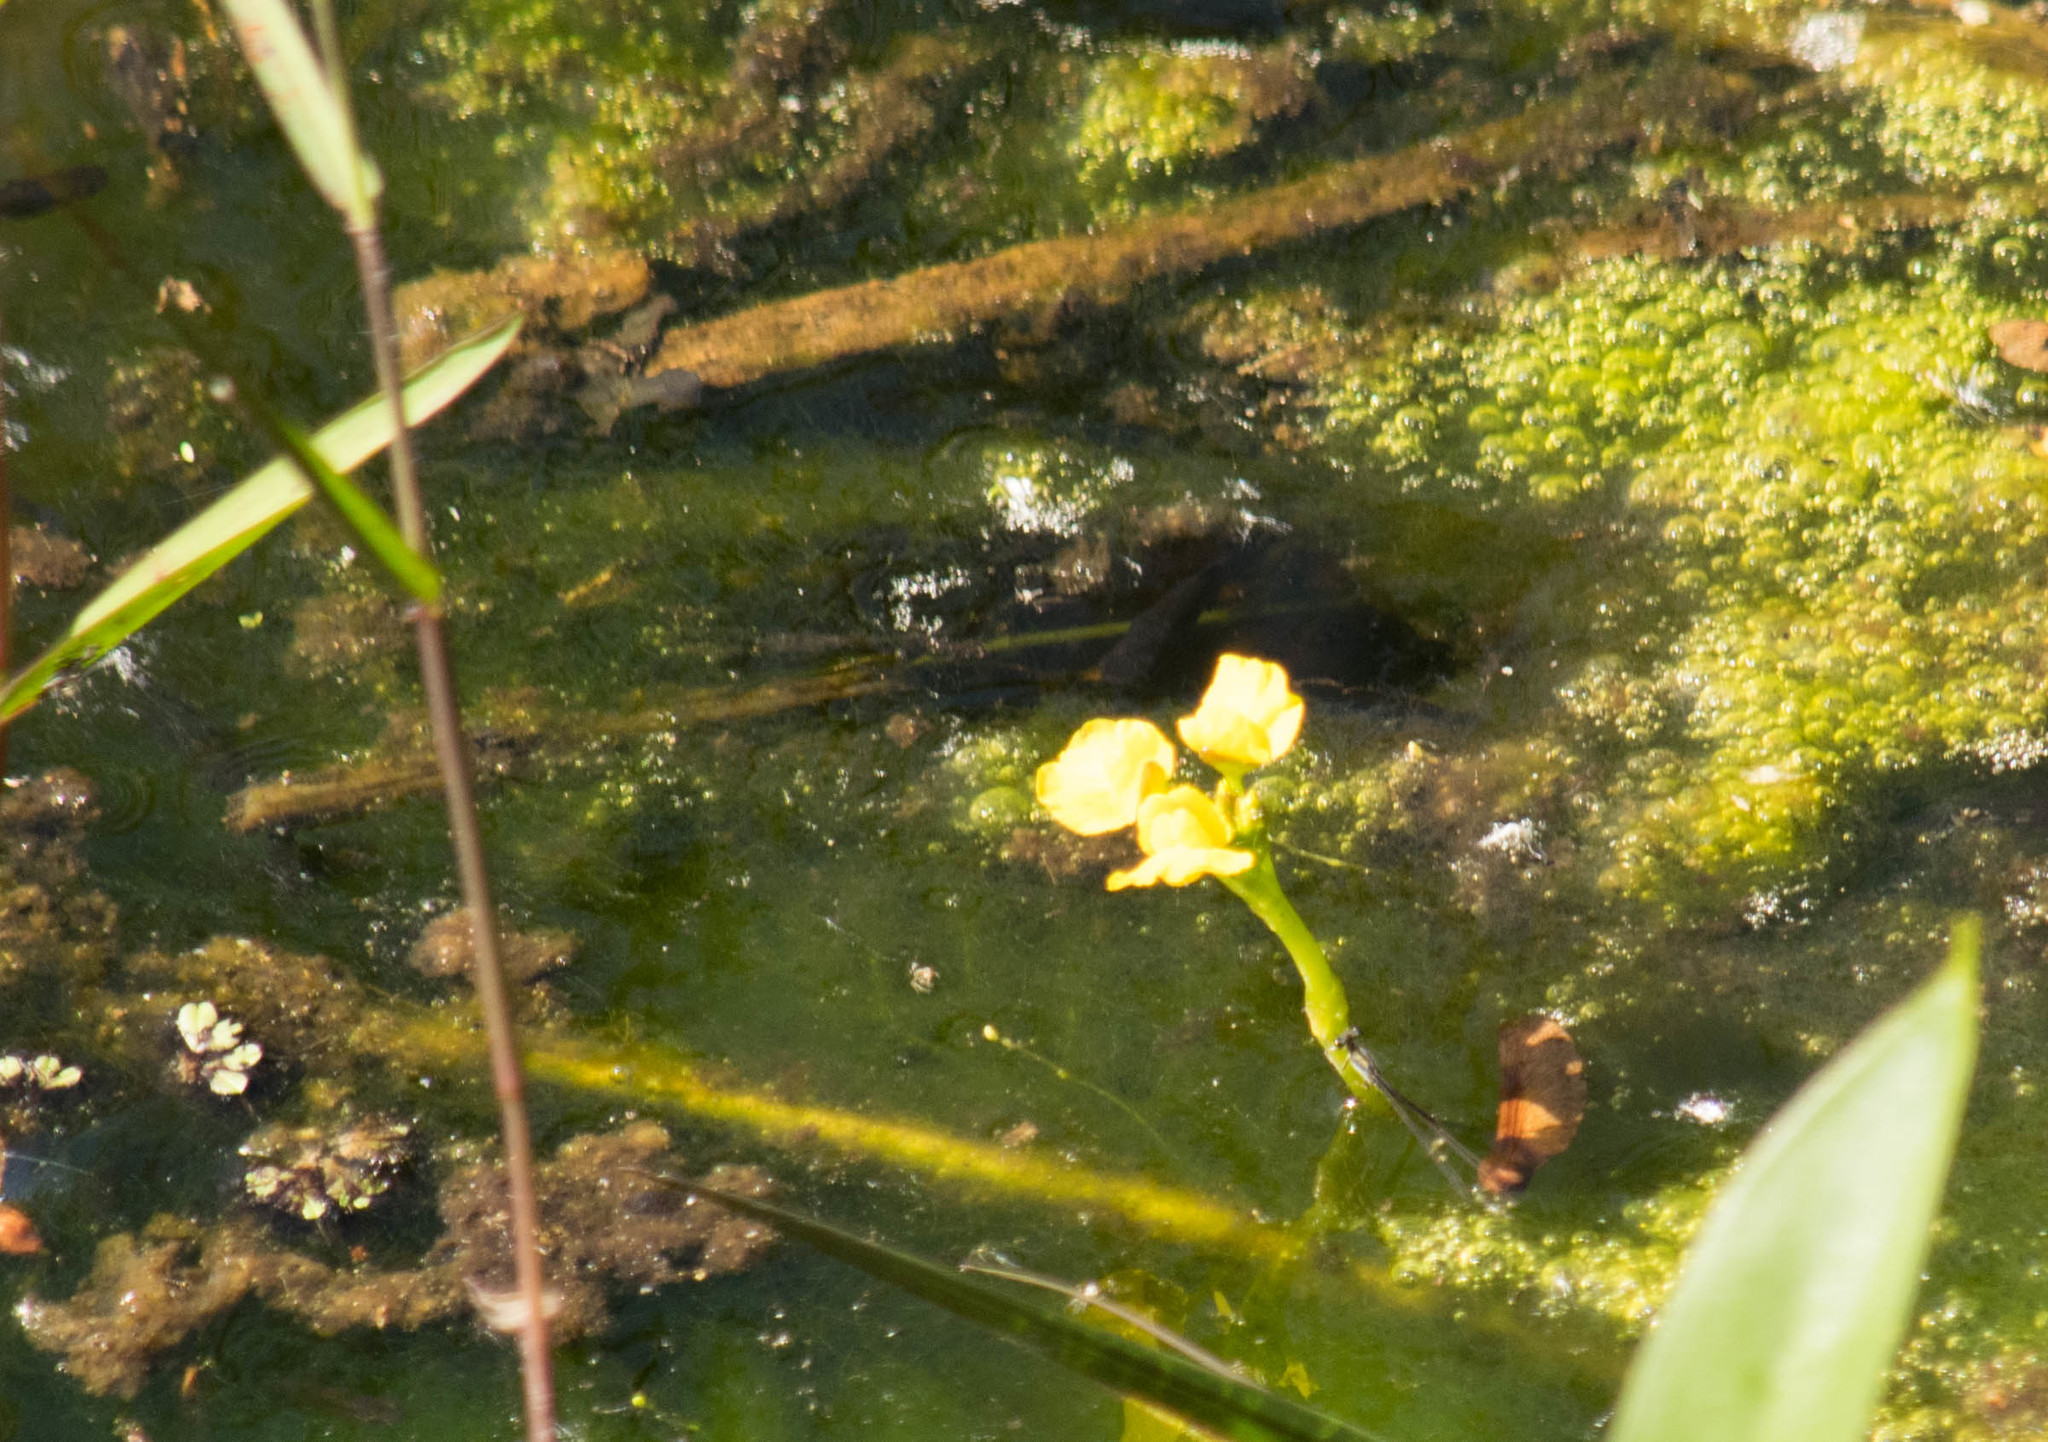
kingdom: Plantae
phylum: Tracheophyta
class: Magnoliopsida
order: Lamiales
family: Lentibulariaceae
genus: Utricularia
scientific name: Utricularia foliosa
